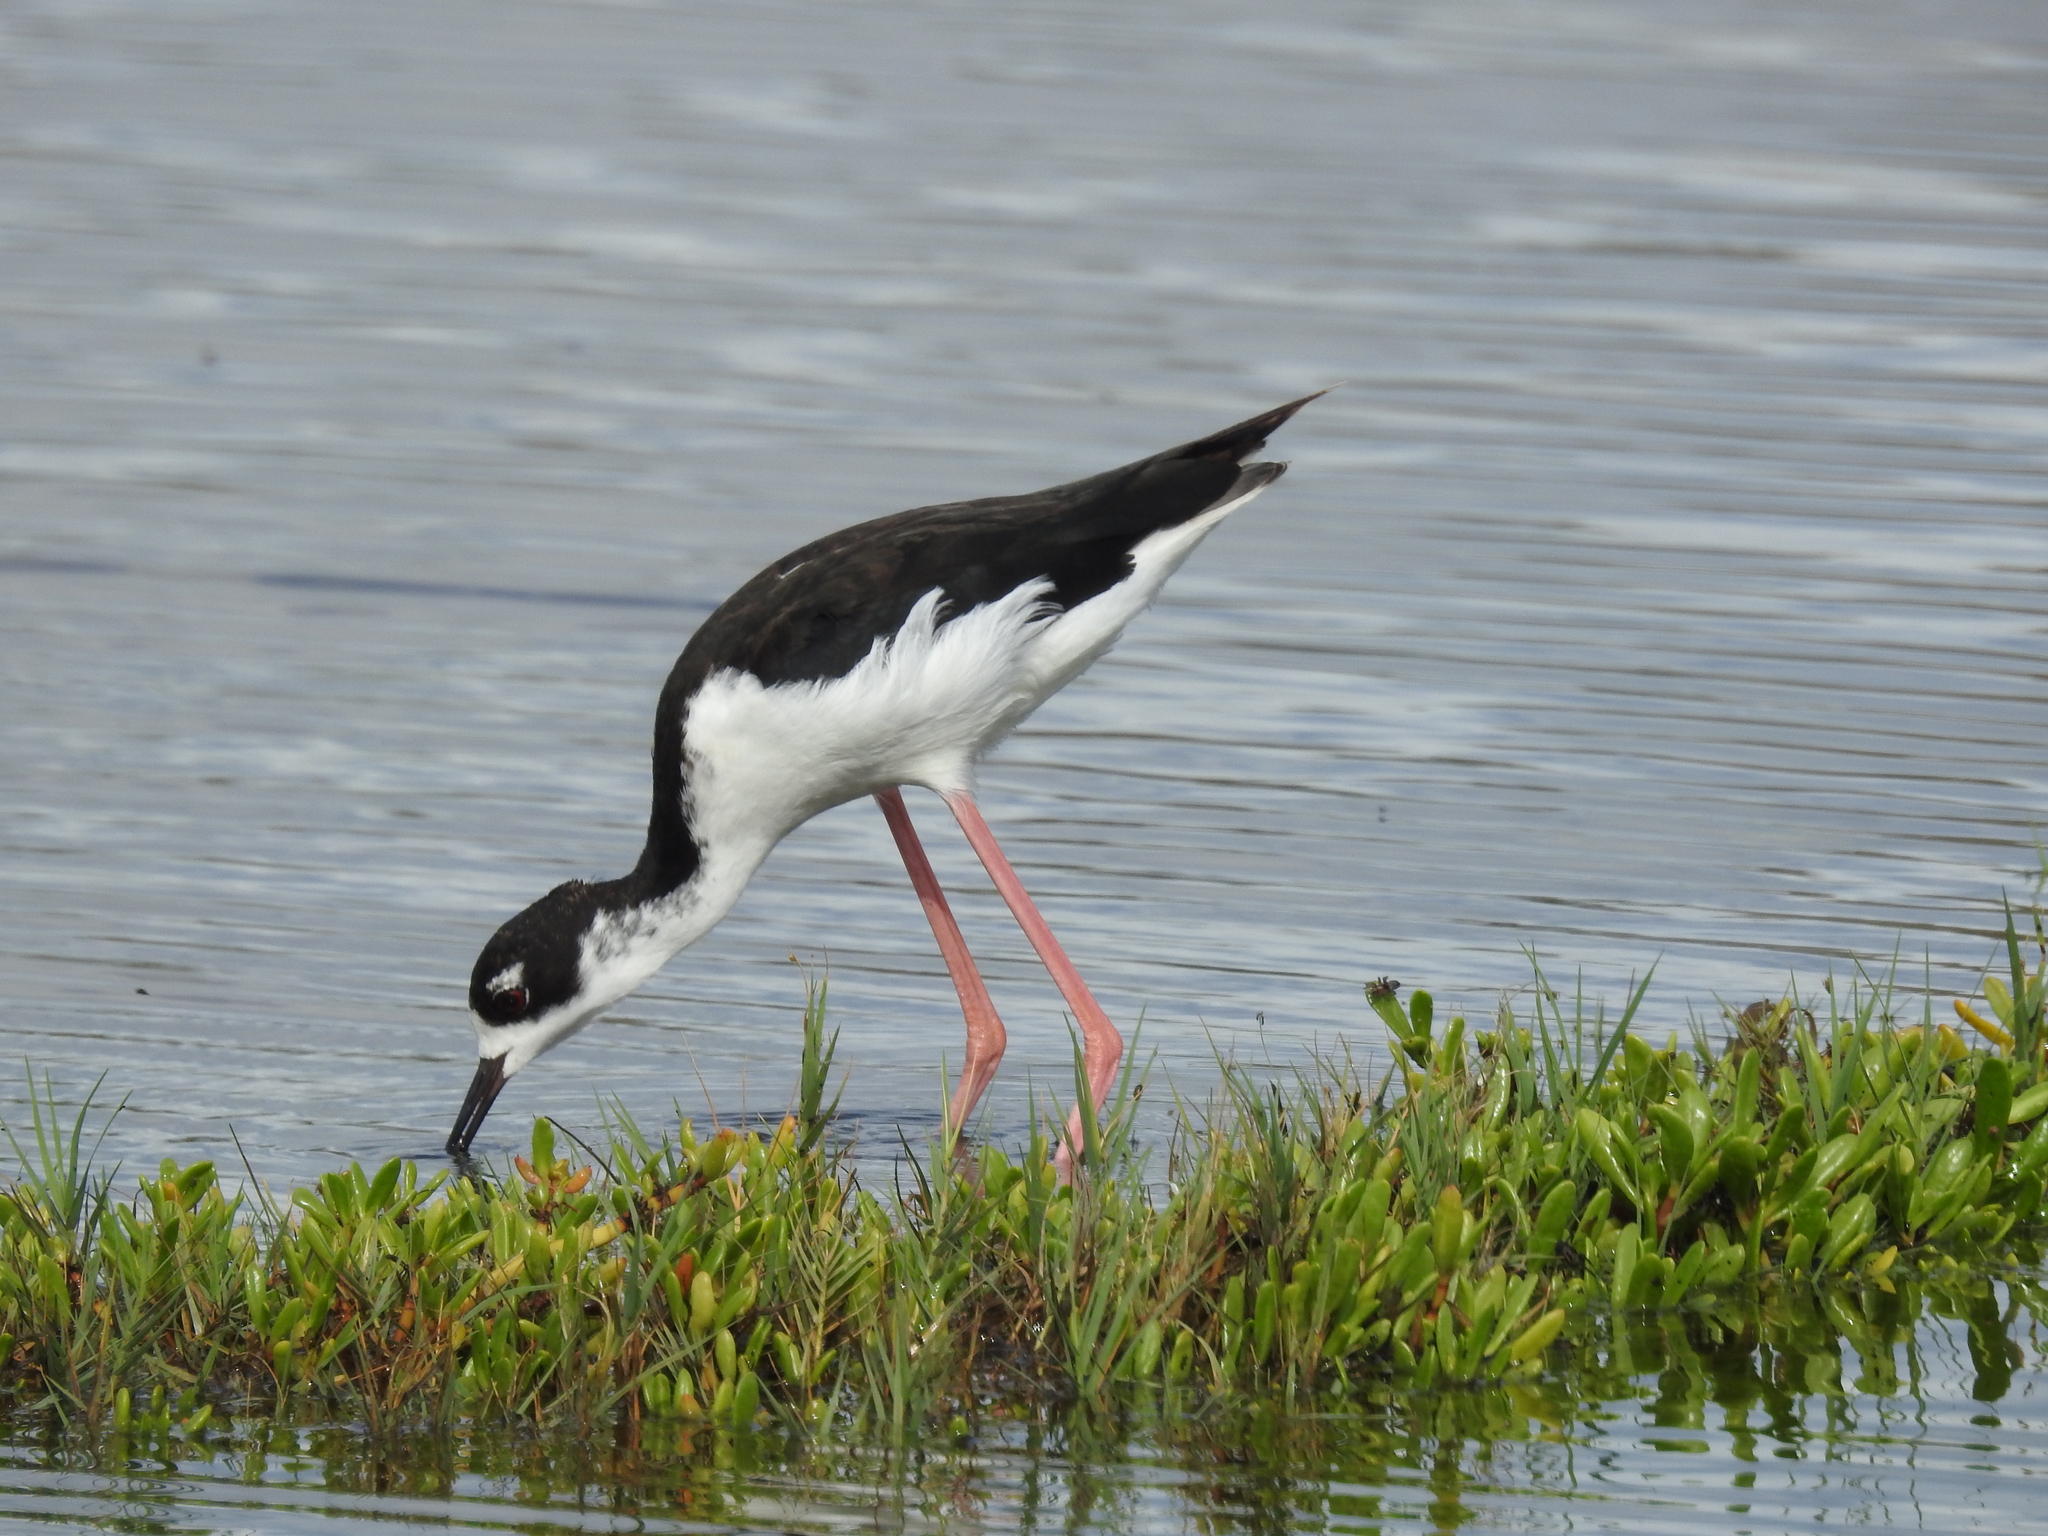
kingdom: Animalia
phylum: Chordata
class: Aves
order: Charadriiformes
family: Recurvirostridae
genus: Himantopus
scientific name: Himantopus mexicanus
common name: Black-necked stilt
